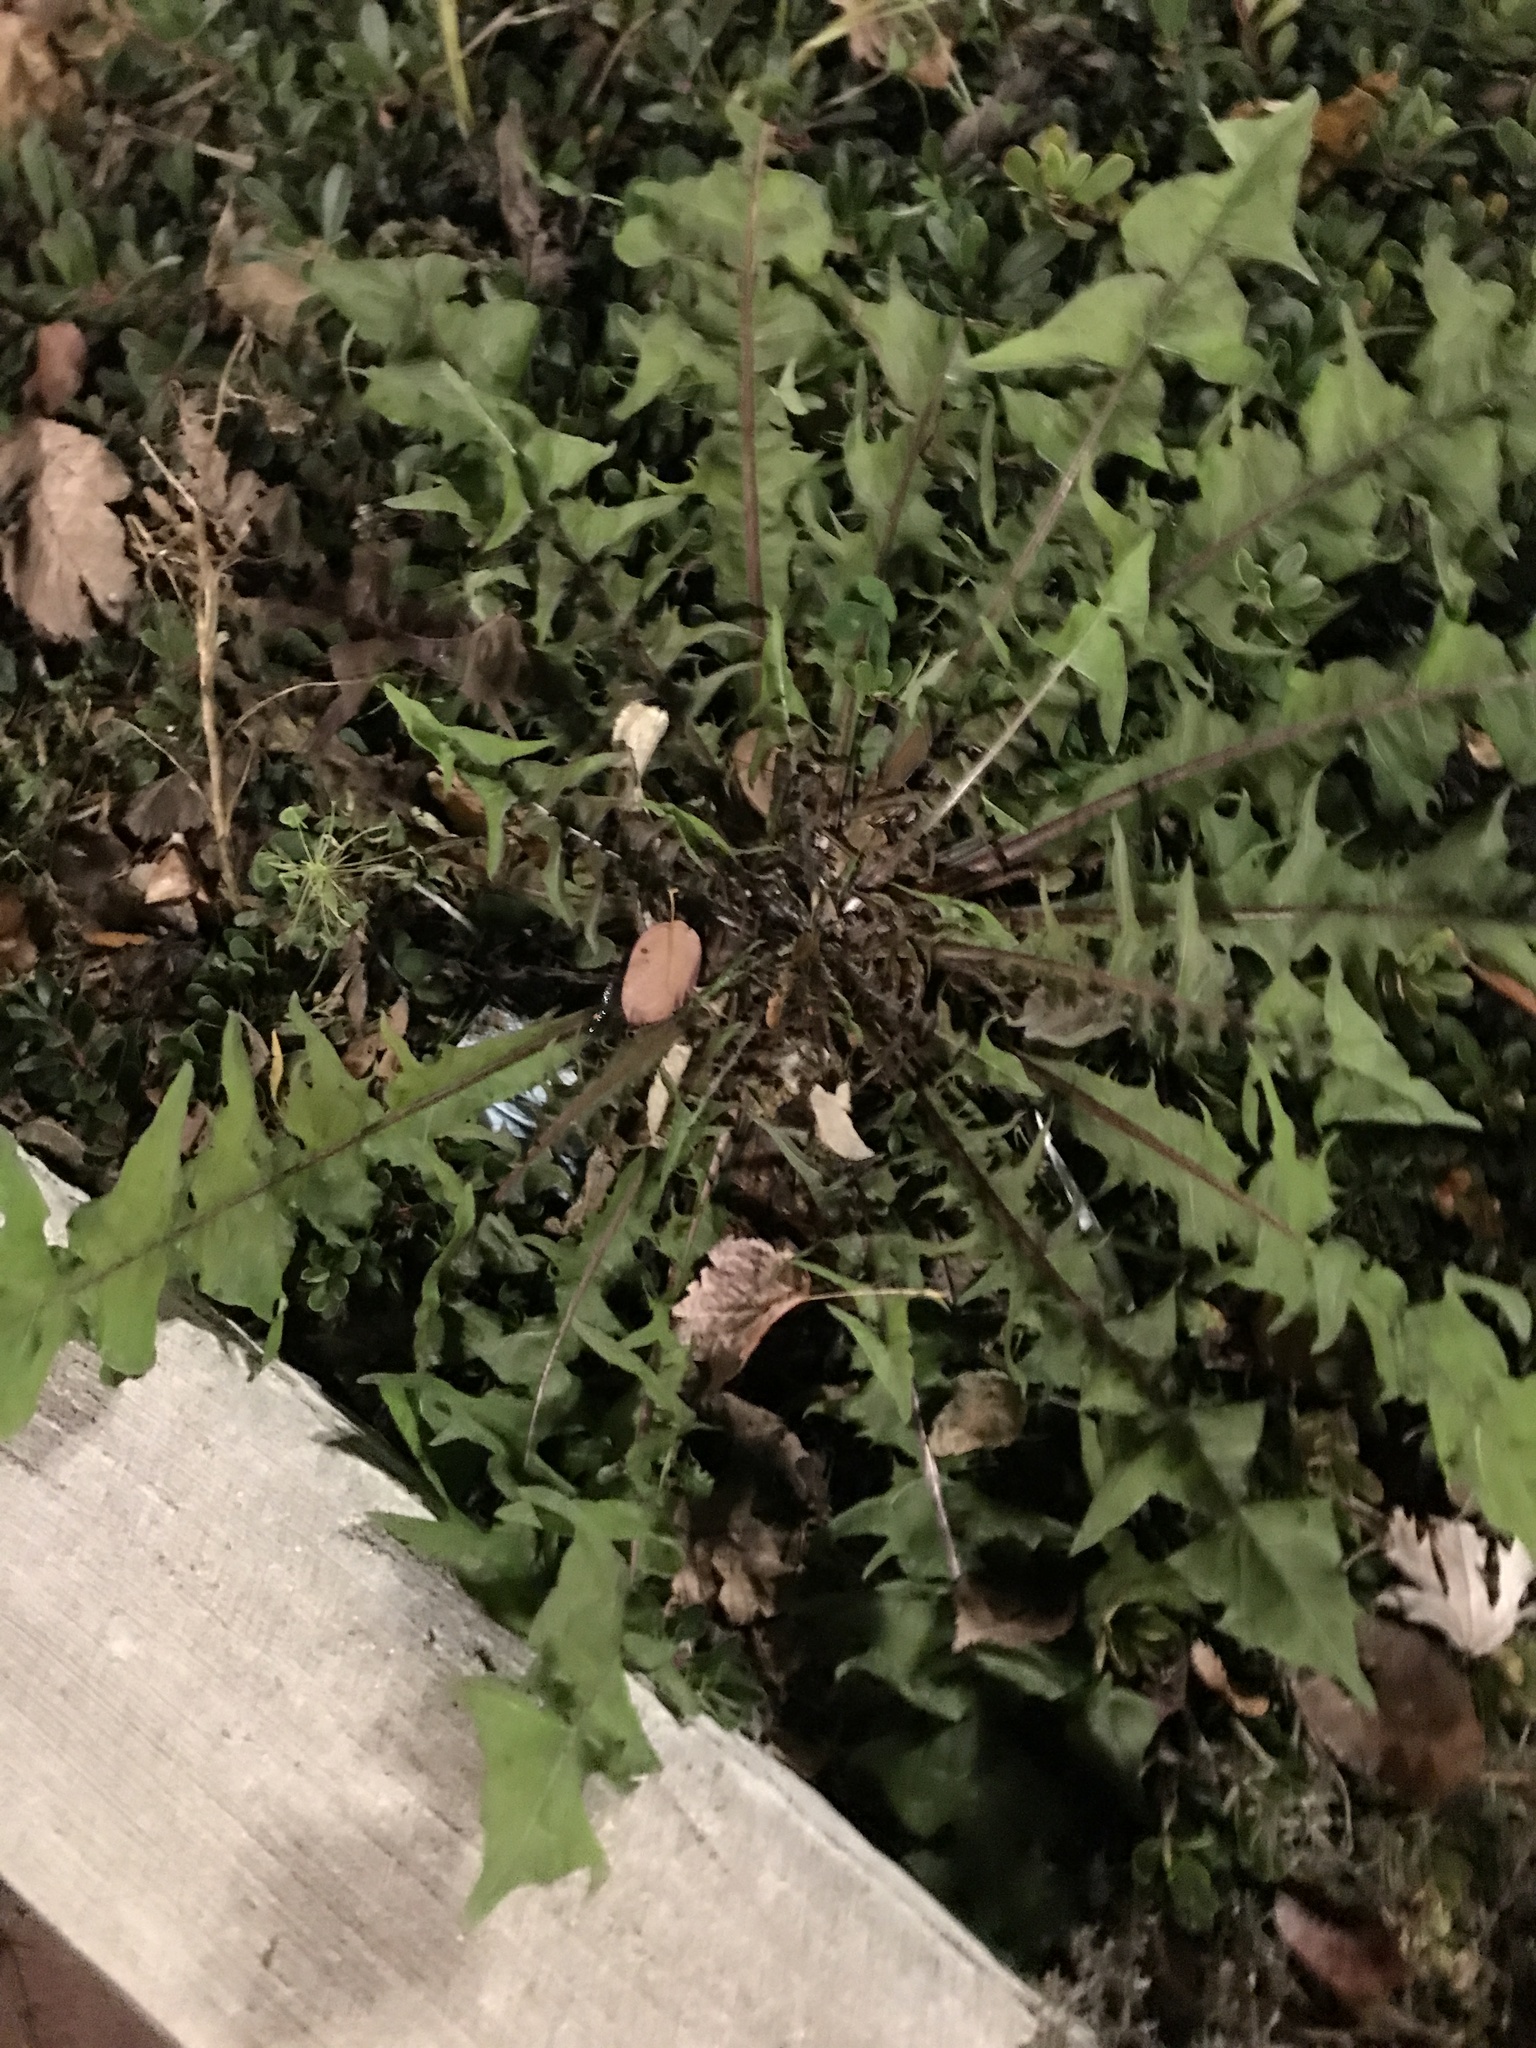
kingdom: Plantae
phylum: Tracheophyta
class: Magnoliopsida
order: Asterales
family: Asteraceae
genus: Taraxacum
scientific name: Taraxacum officinale
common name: Common dandelion
